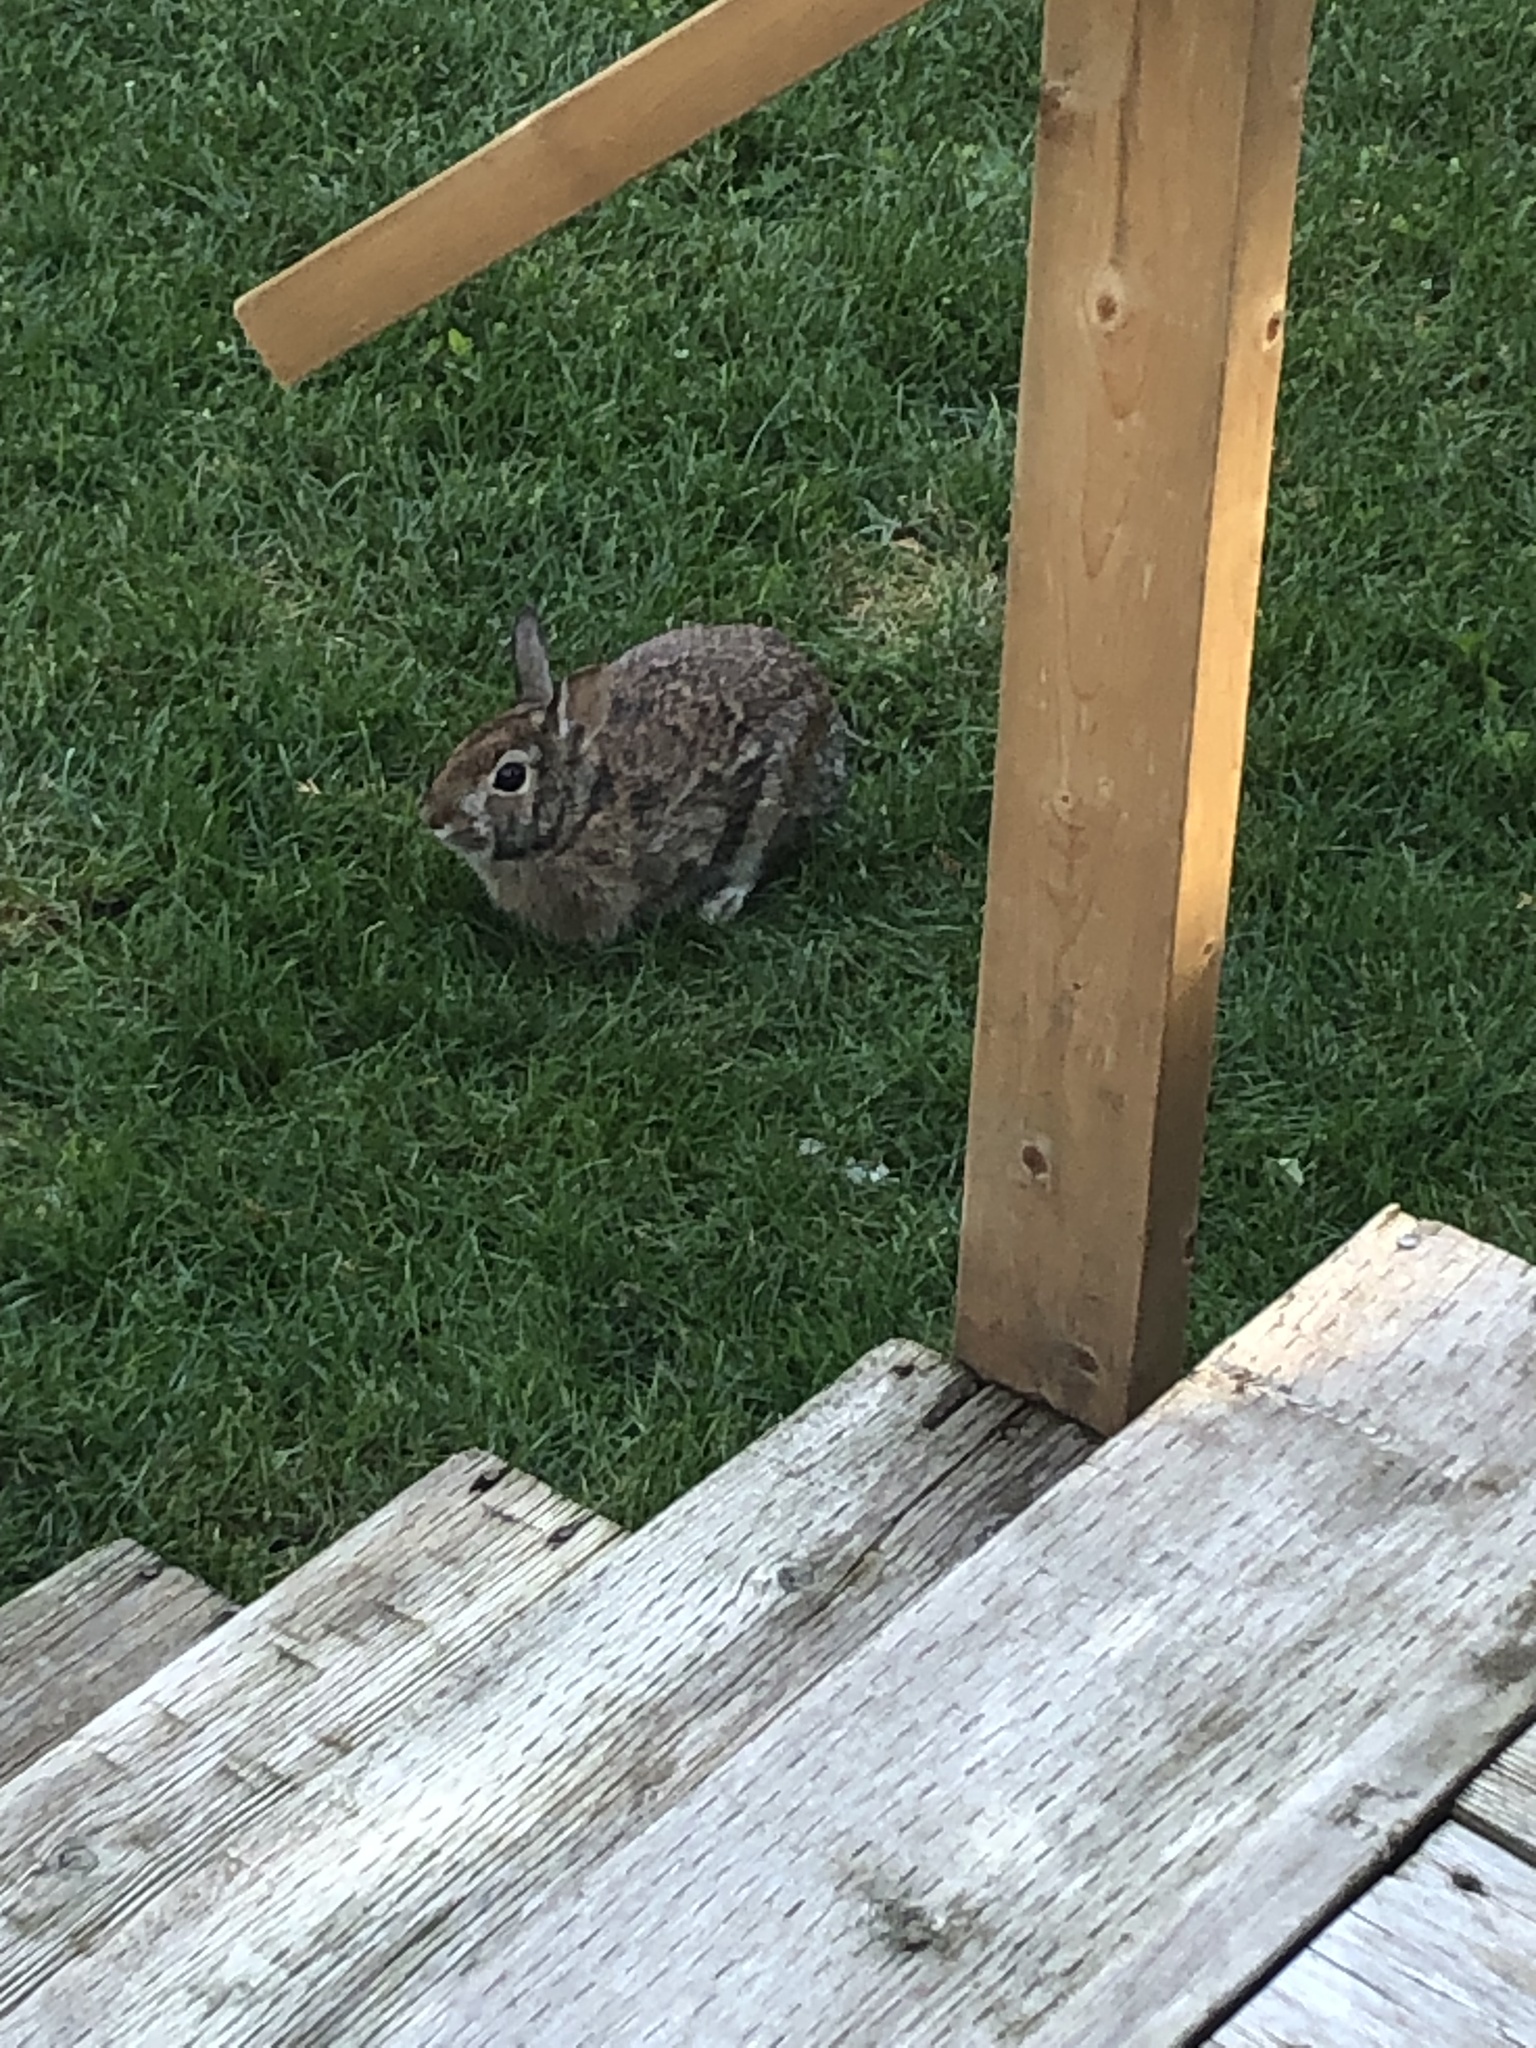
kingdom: Animalia
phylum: Chordata
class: Mammalia
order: Lagomorpha
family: Leporidae
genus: Sylvilagus
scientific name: Sylvilagus floridanus
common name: Eastern cottontail
